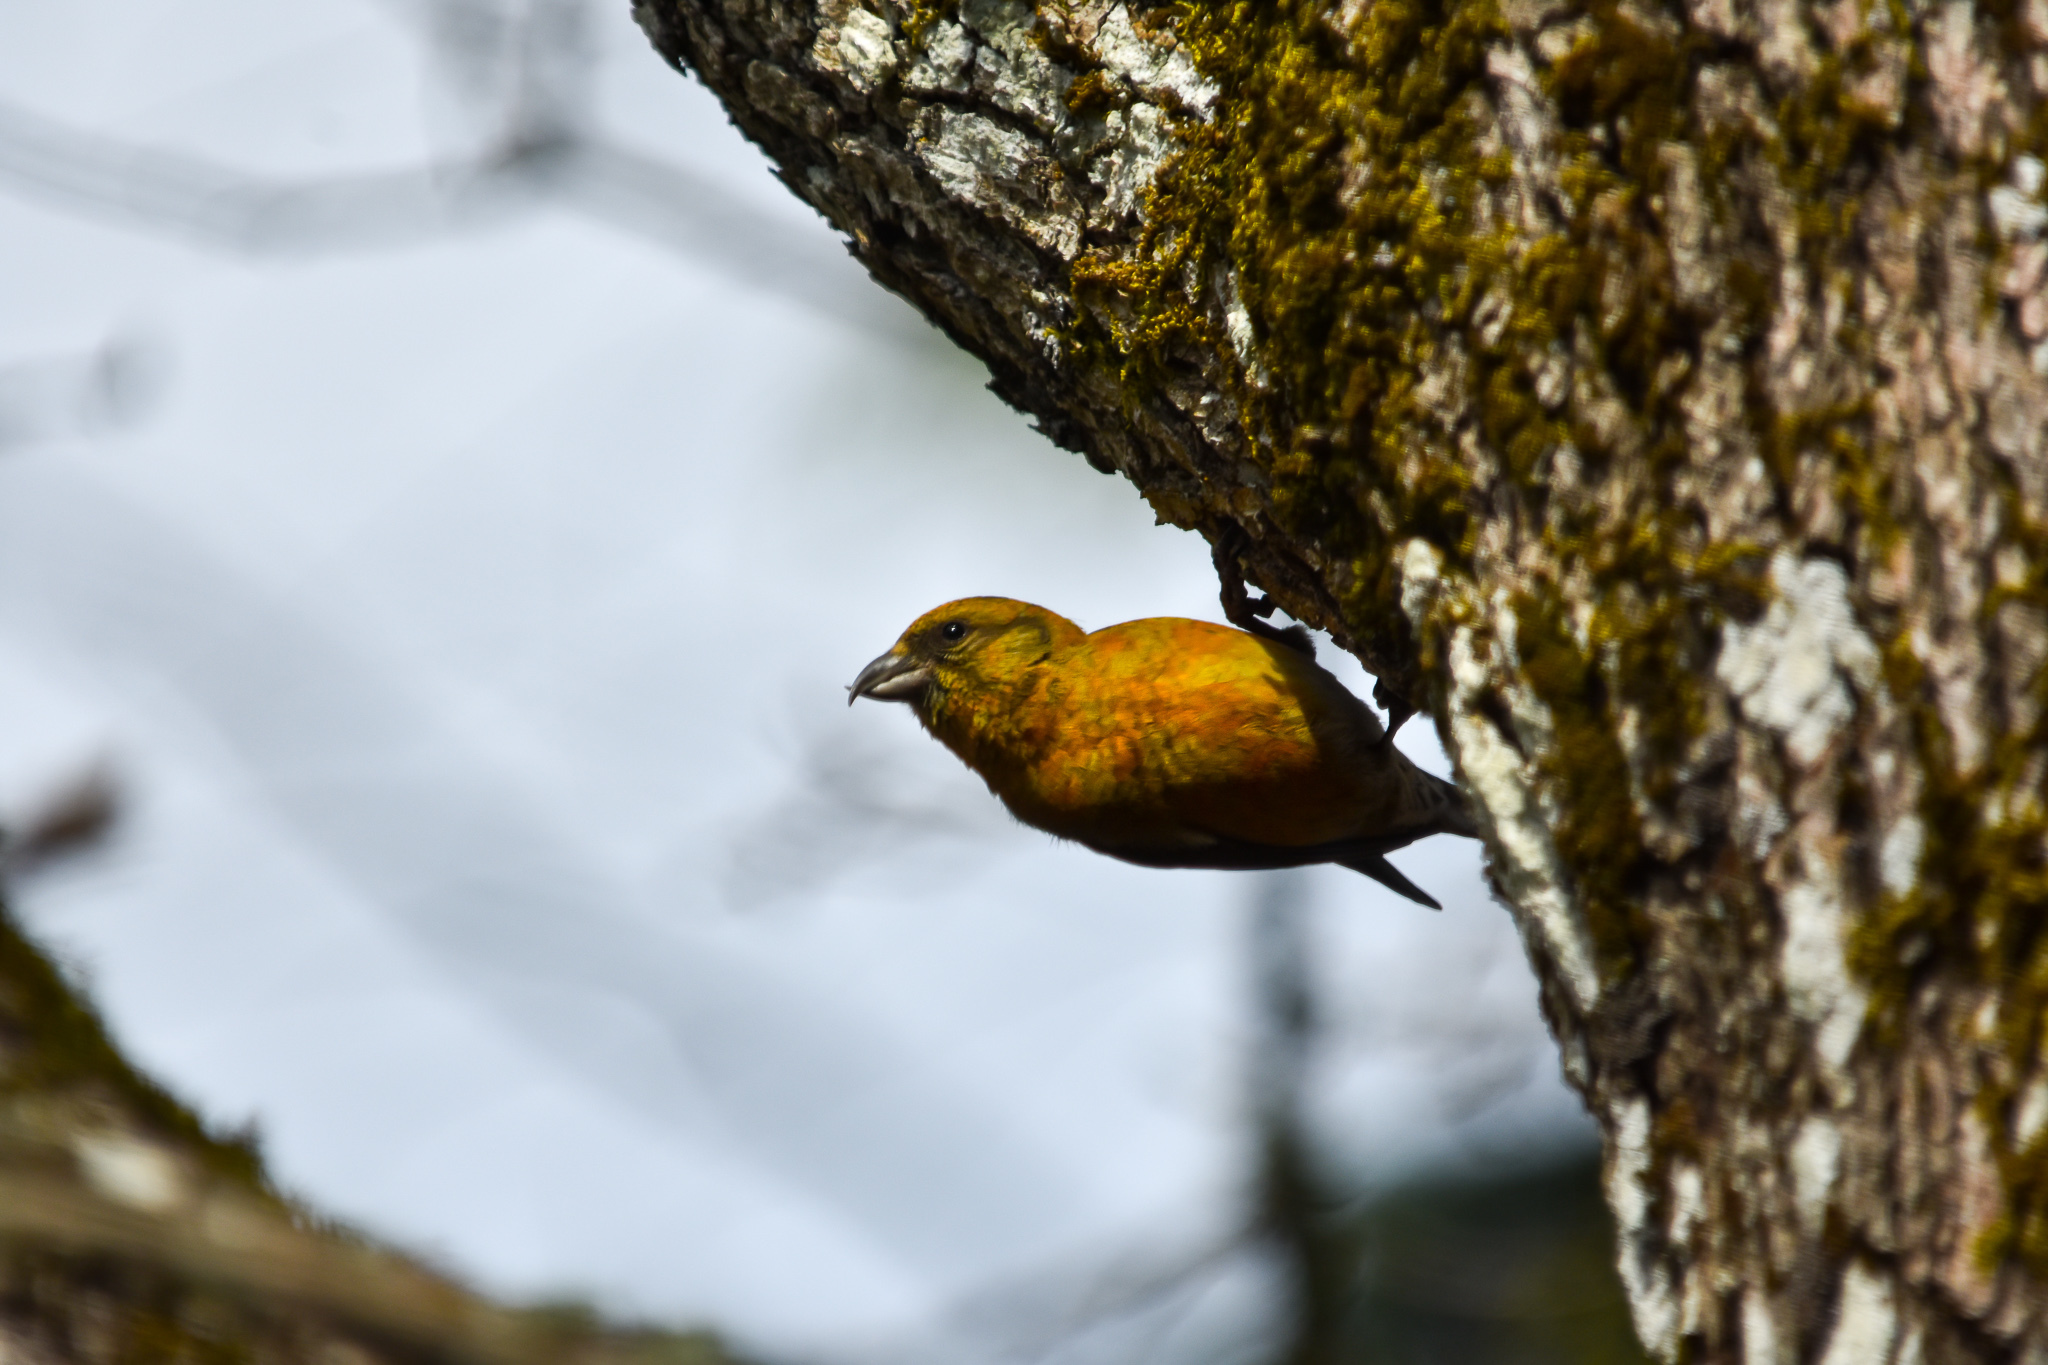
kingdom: Animalia
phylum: Chordata
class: Aves
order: Passeriformes
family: Fringillidae
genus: Loxia
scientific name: Loxia curvirostra
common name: Red crossbill
